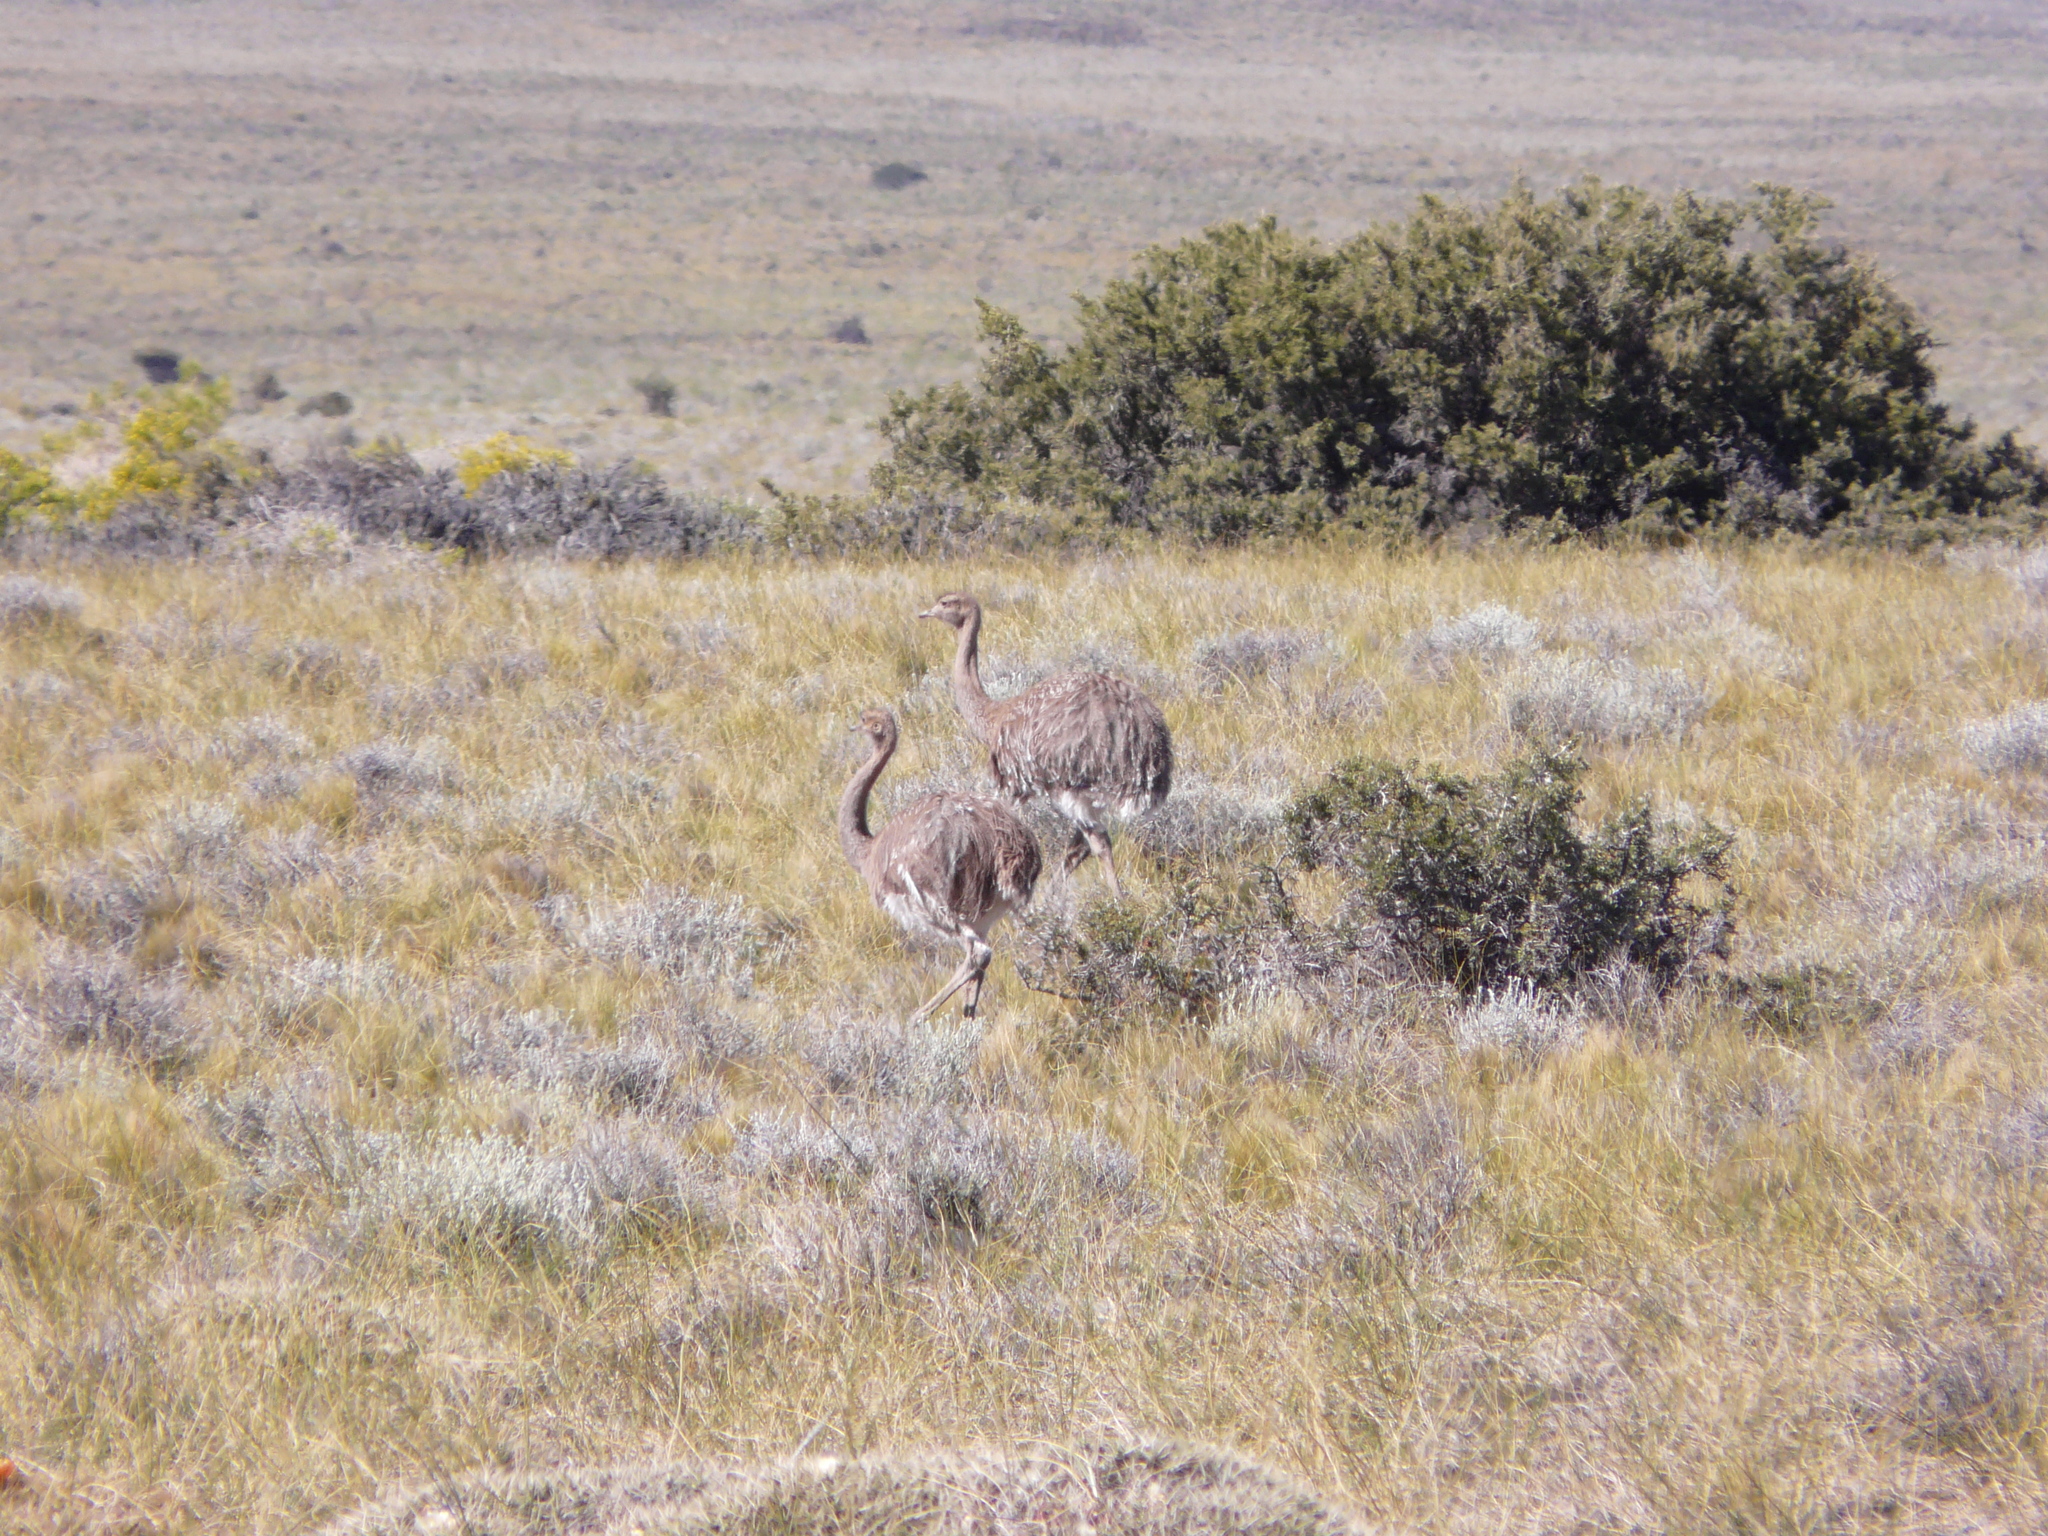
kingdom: Animalia
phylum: Chordata
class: Aves
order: Rheiformes
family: Rheidae
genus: Rhea
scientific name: Rhea pennata
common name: Lesser rhea
